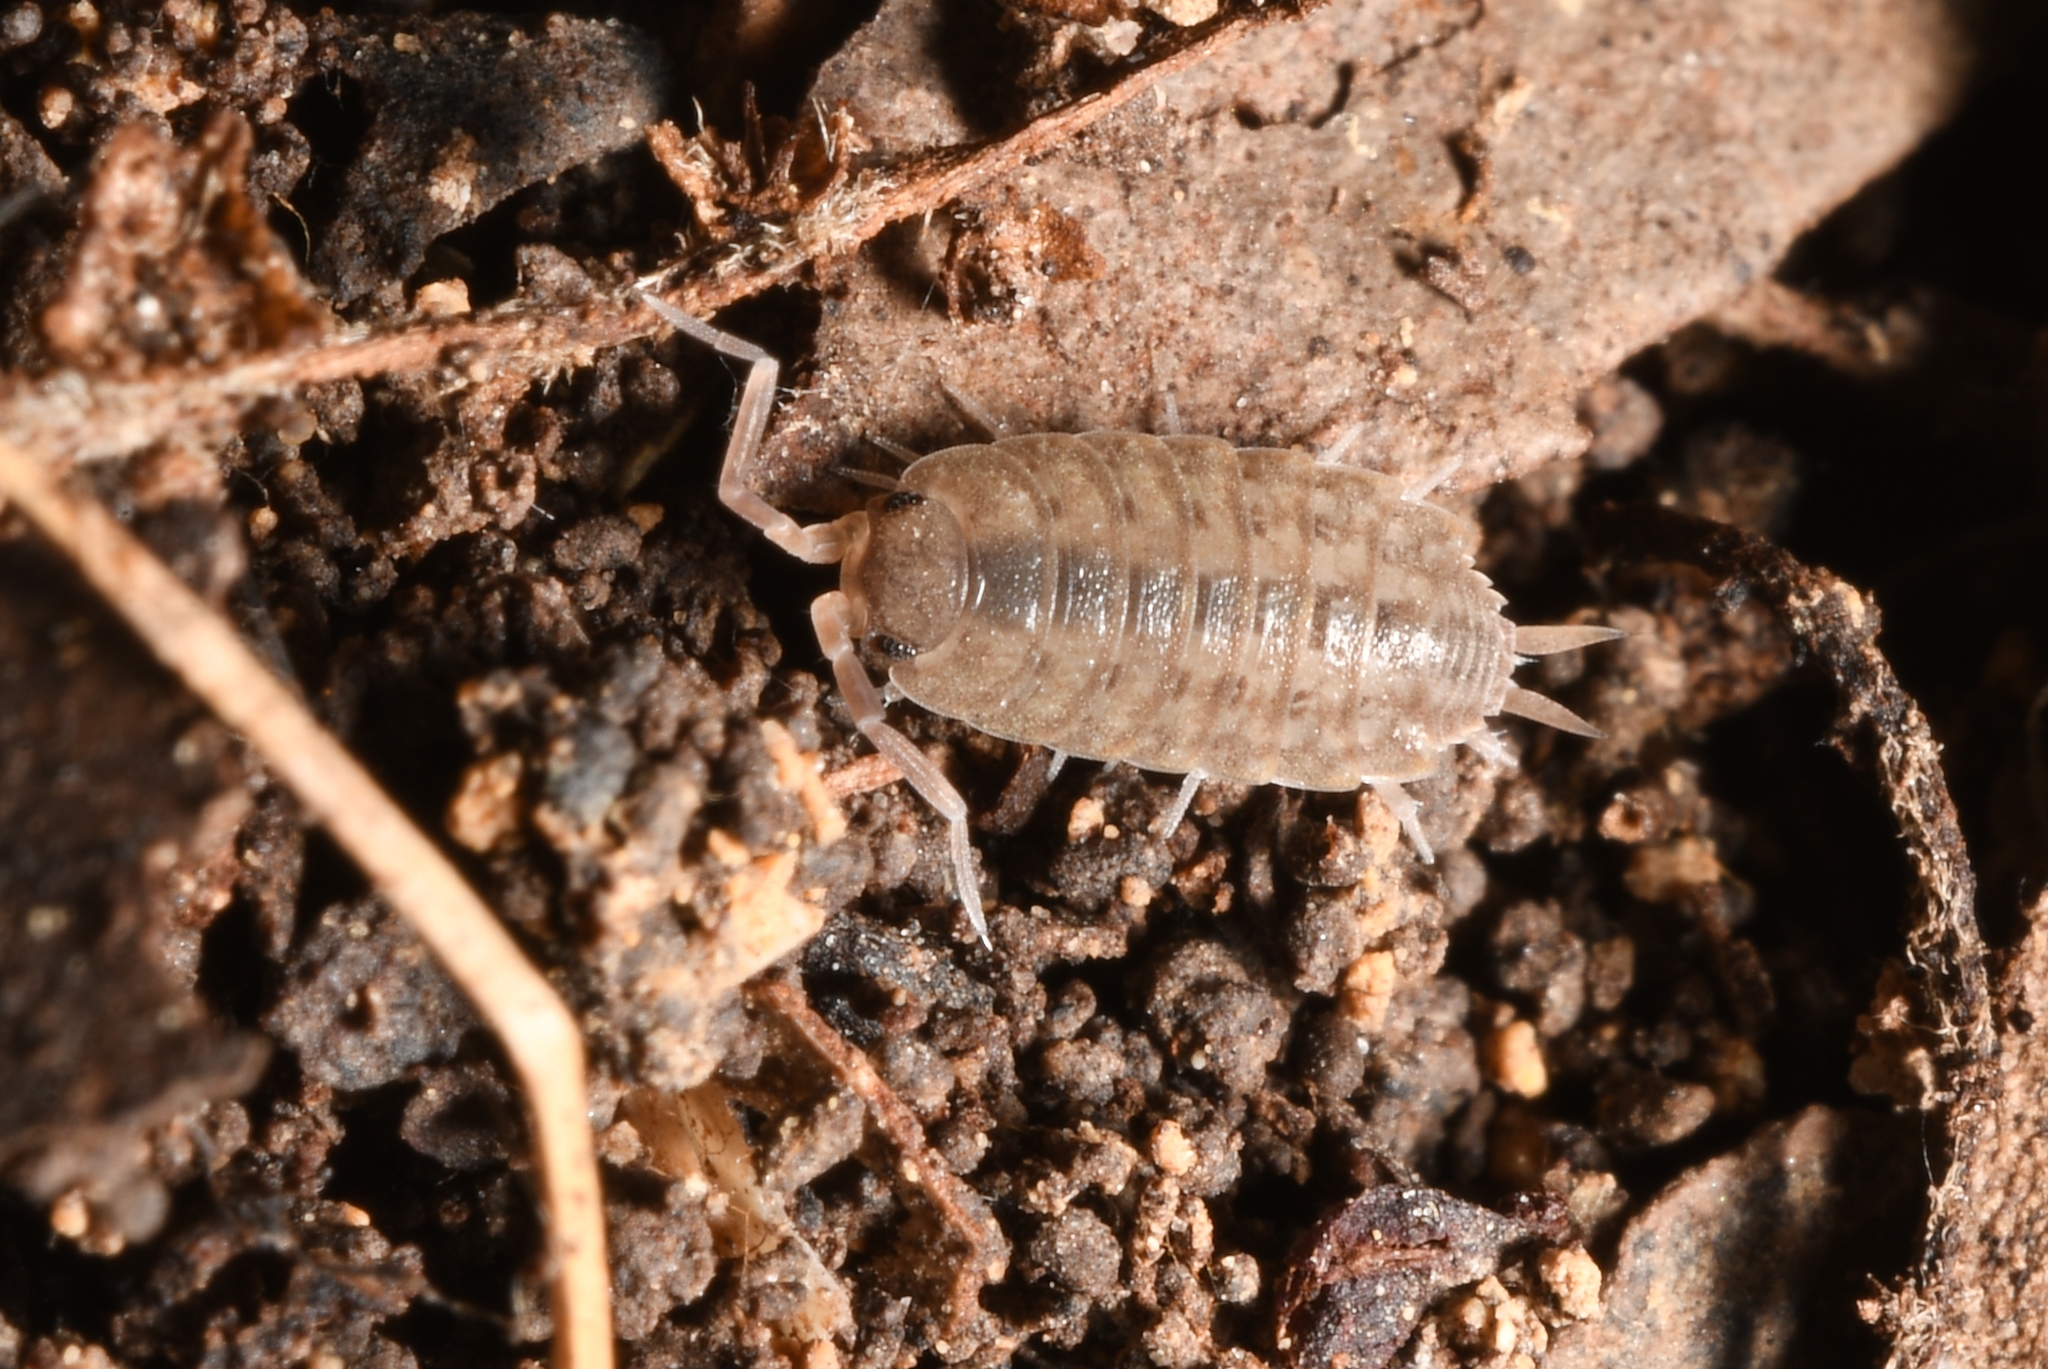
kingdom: Animalia
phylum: Arthropoda
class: Malacostraca
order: Isopoda
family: Agnaridae
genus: Orthometopon
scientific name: Orthometopon planum
